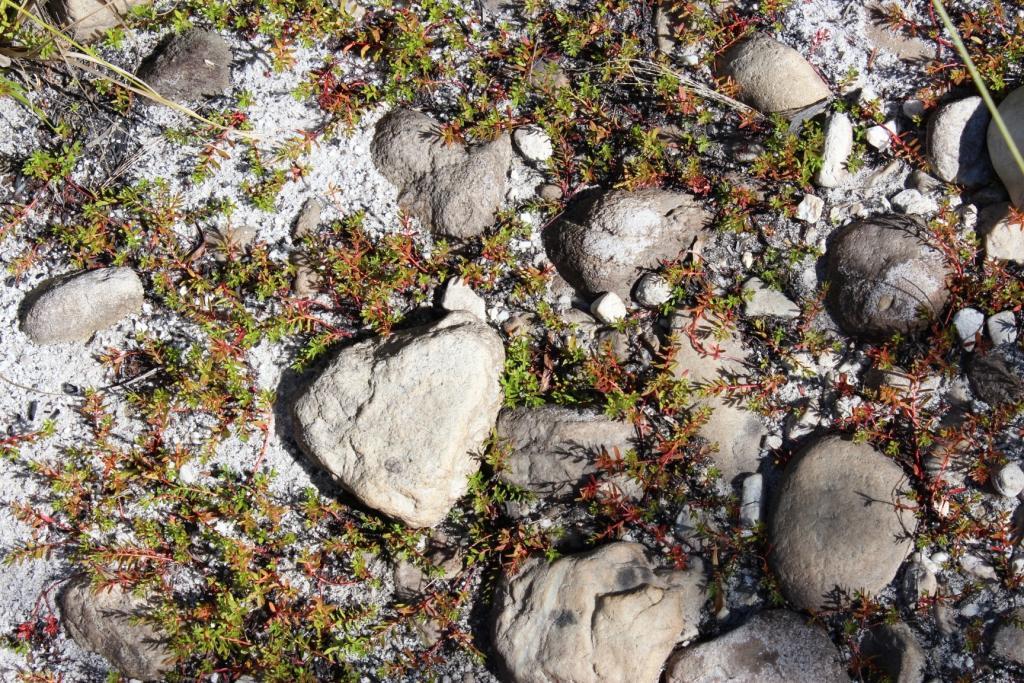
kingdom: Plantae
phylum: Tracheophyta
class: Magnoliopsida
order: Saxifragales
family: Haloragaceae
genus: Laurembergia
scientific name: Laurembergia repens
